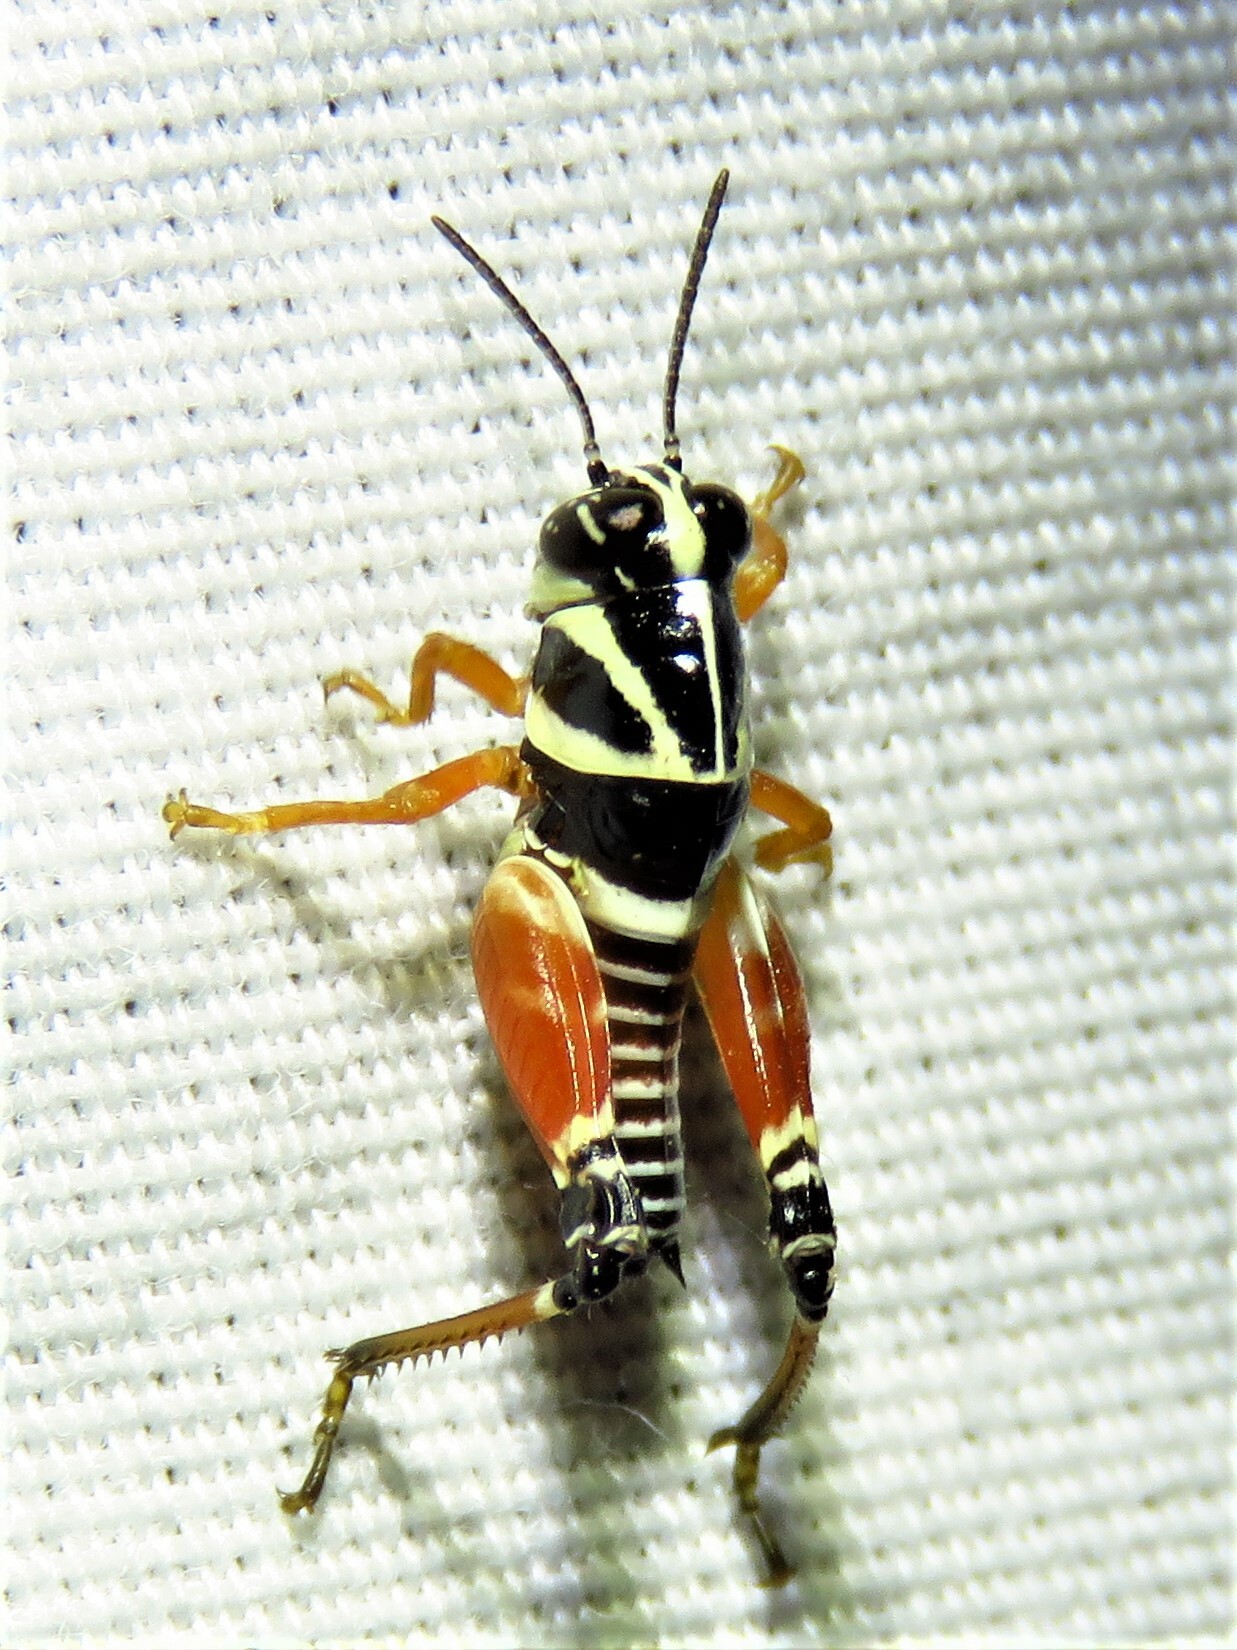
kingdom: Animalia
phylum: Arthropoda
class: Insecta
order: Orthoptera
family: Acrididae
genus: Aidemona
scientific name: Aidemona azteca
